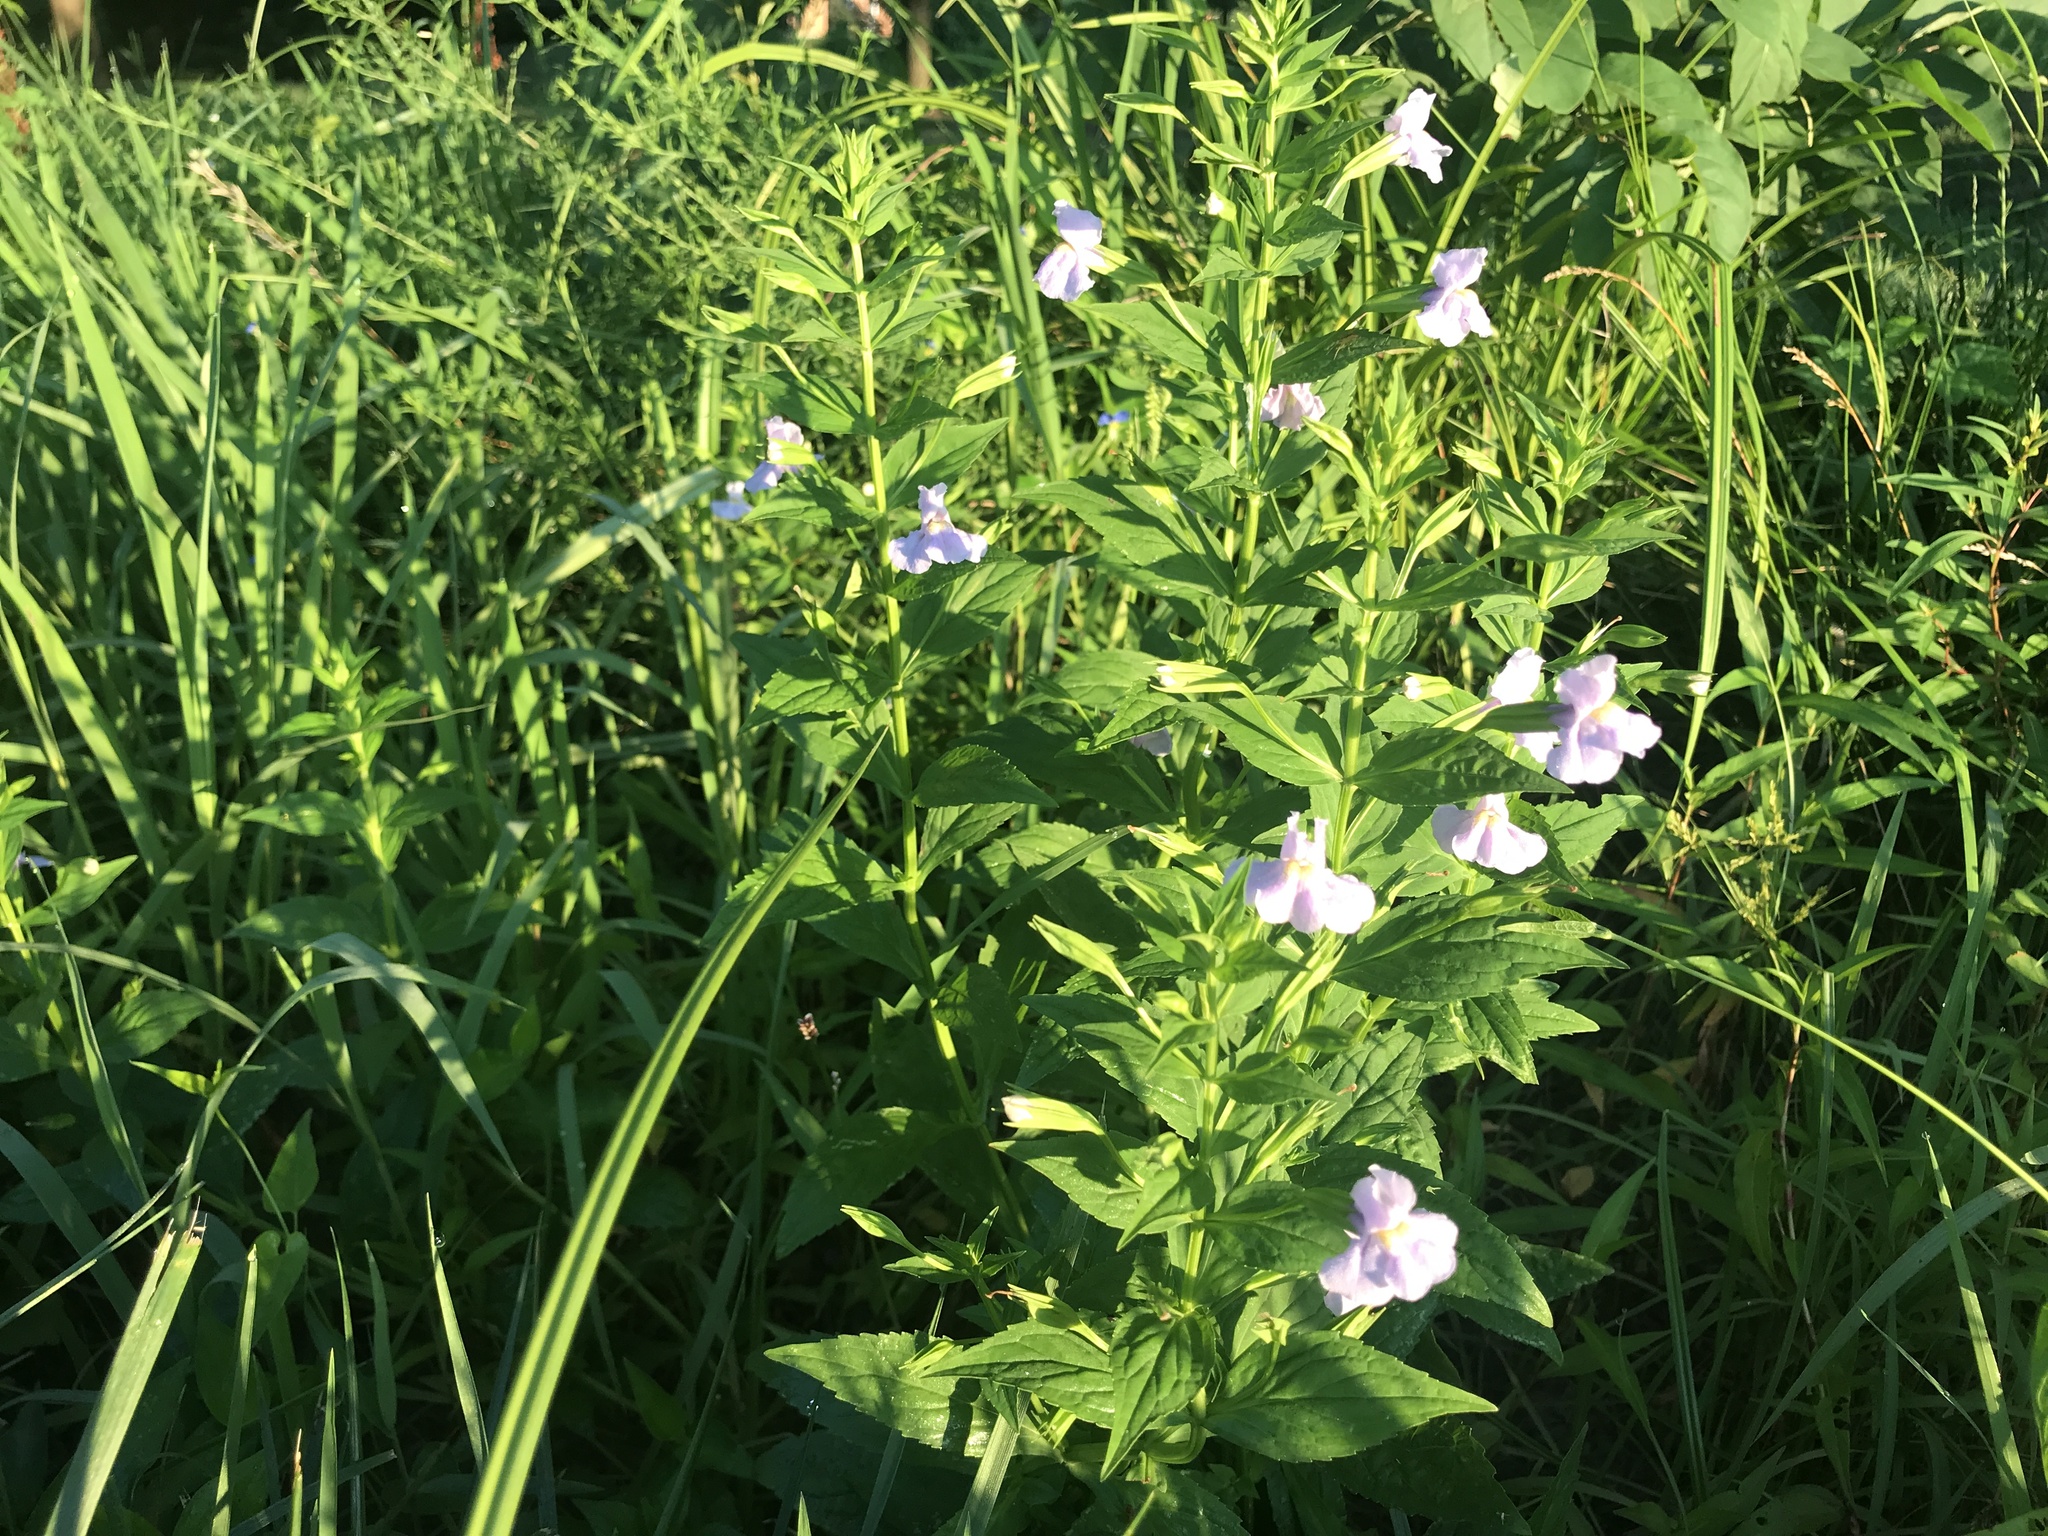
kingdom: Plantae
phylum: Tracheophyta
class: Magnoliopsida
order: Lamiales
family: Phrymaceae
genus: Mimulus
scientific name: Mimulus ringens
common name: Allegheny monkeyflower
